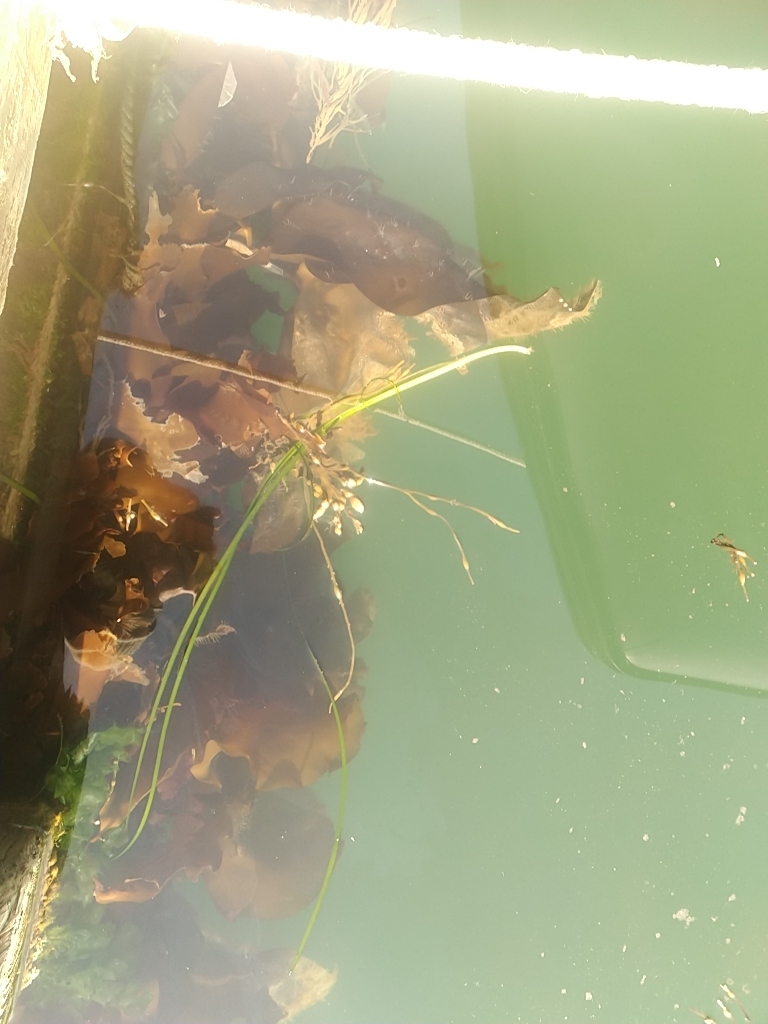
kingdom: Plantae
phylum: Tracheophyta
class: Liliopsida
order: Alismatales
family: Zosteraceae
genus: Zostera
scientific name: Zostera marina
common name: Eelgrass
